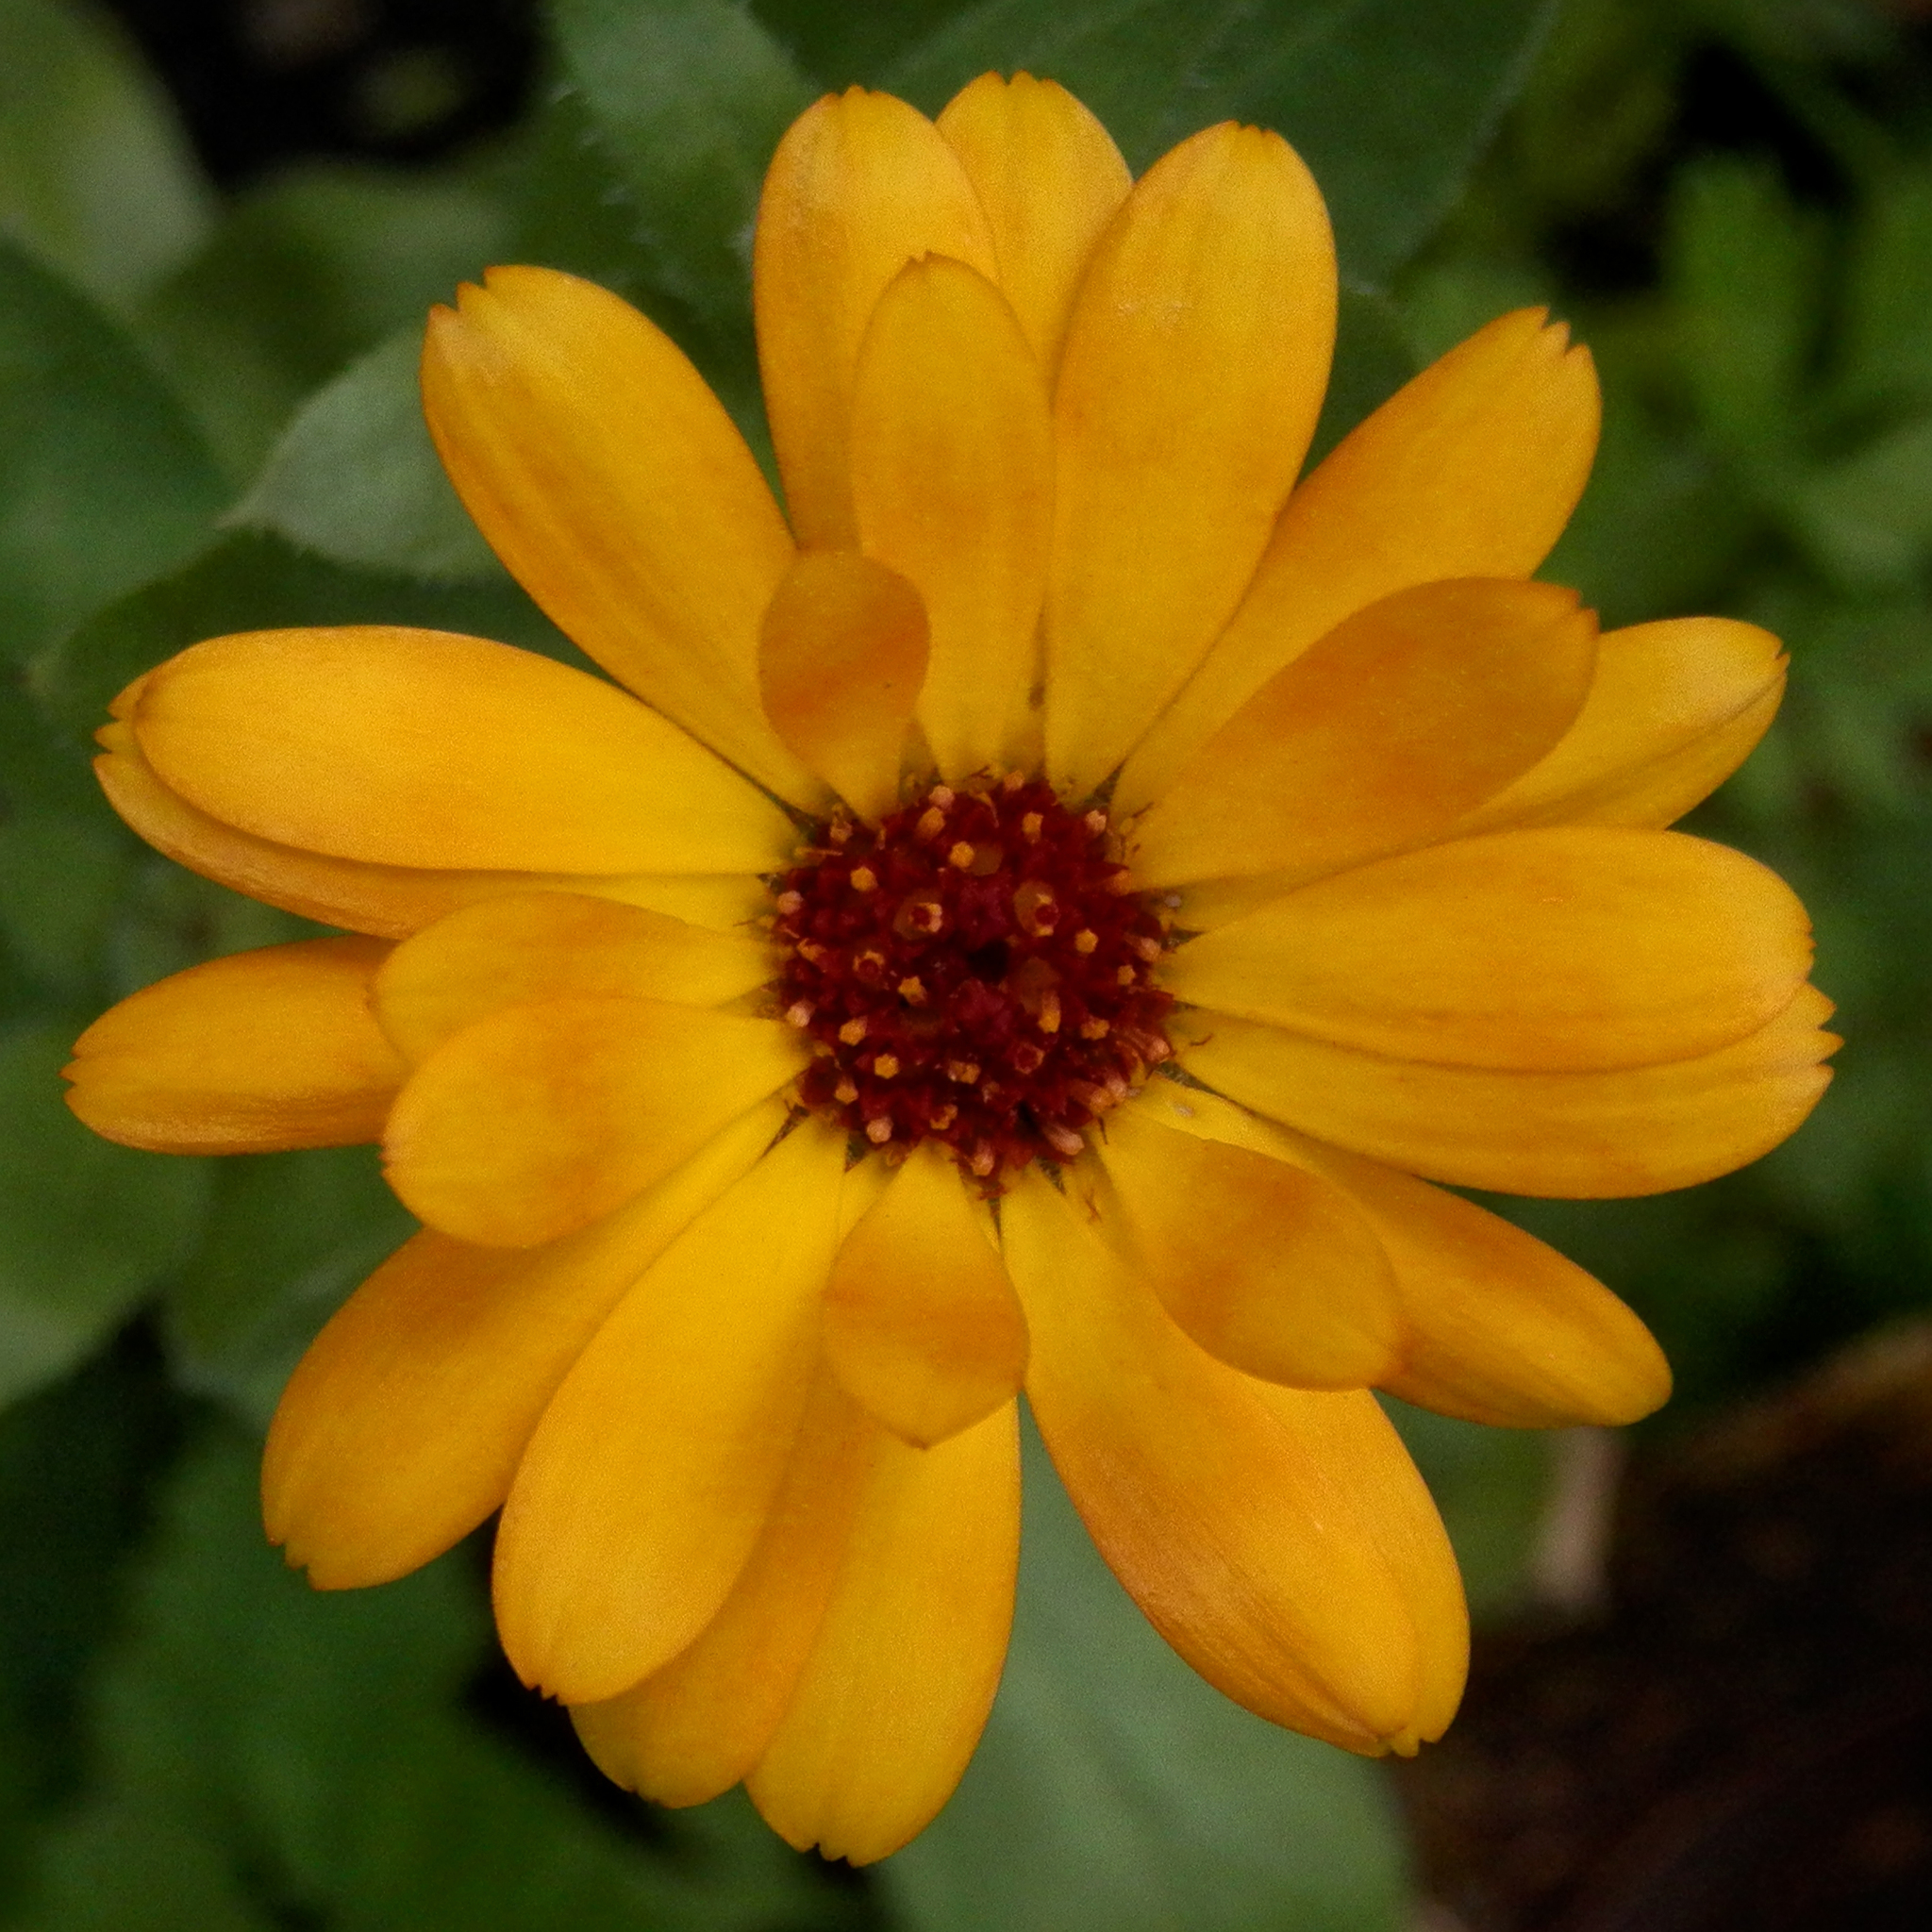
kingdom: Plantae
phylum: Tracheophyta
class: Magnoliopsida
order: Asterales
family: Asteraceae
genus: Calendula
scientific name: Calendula officinalis
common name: Pot marigold
